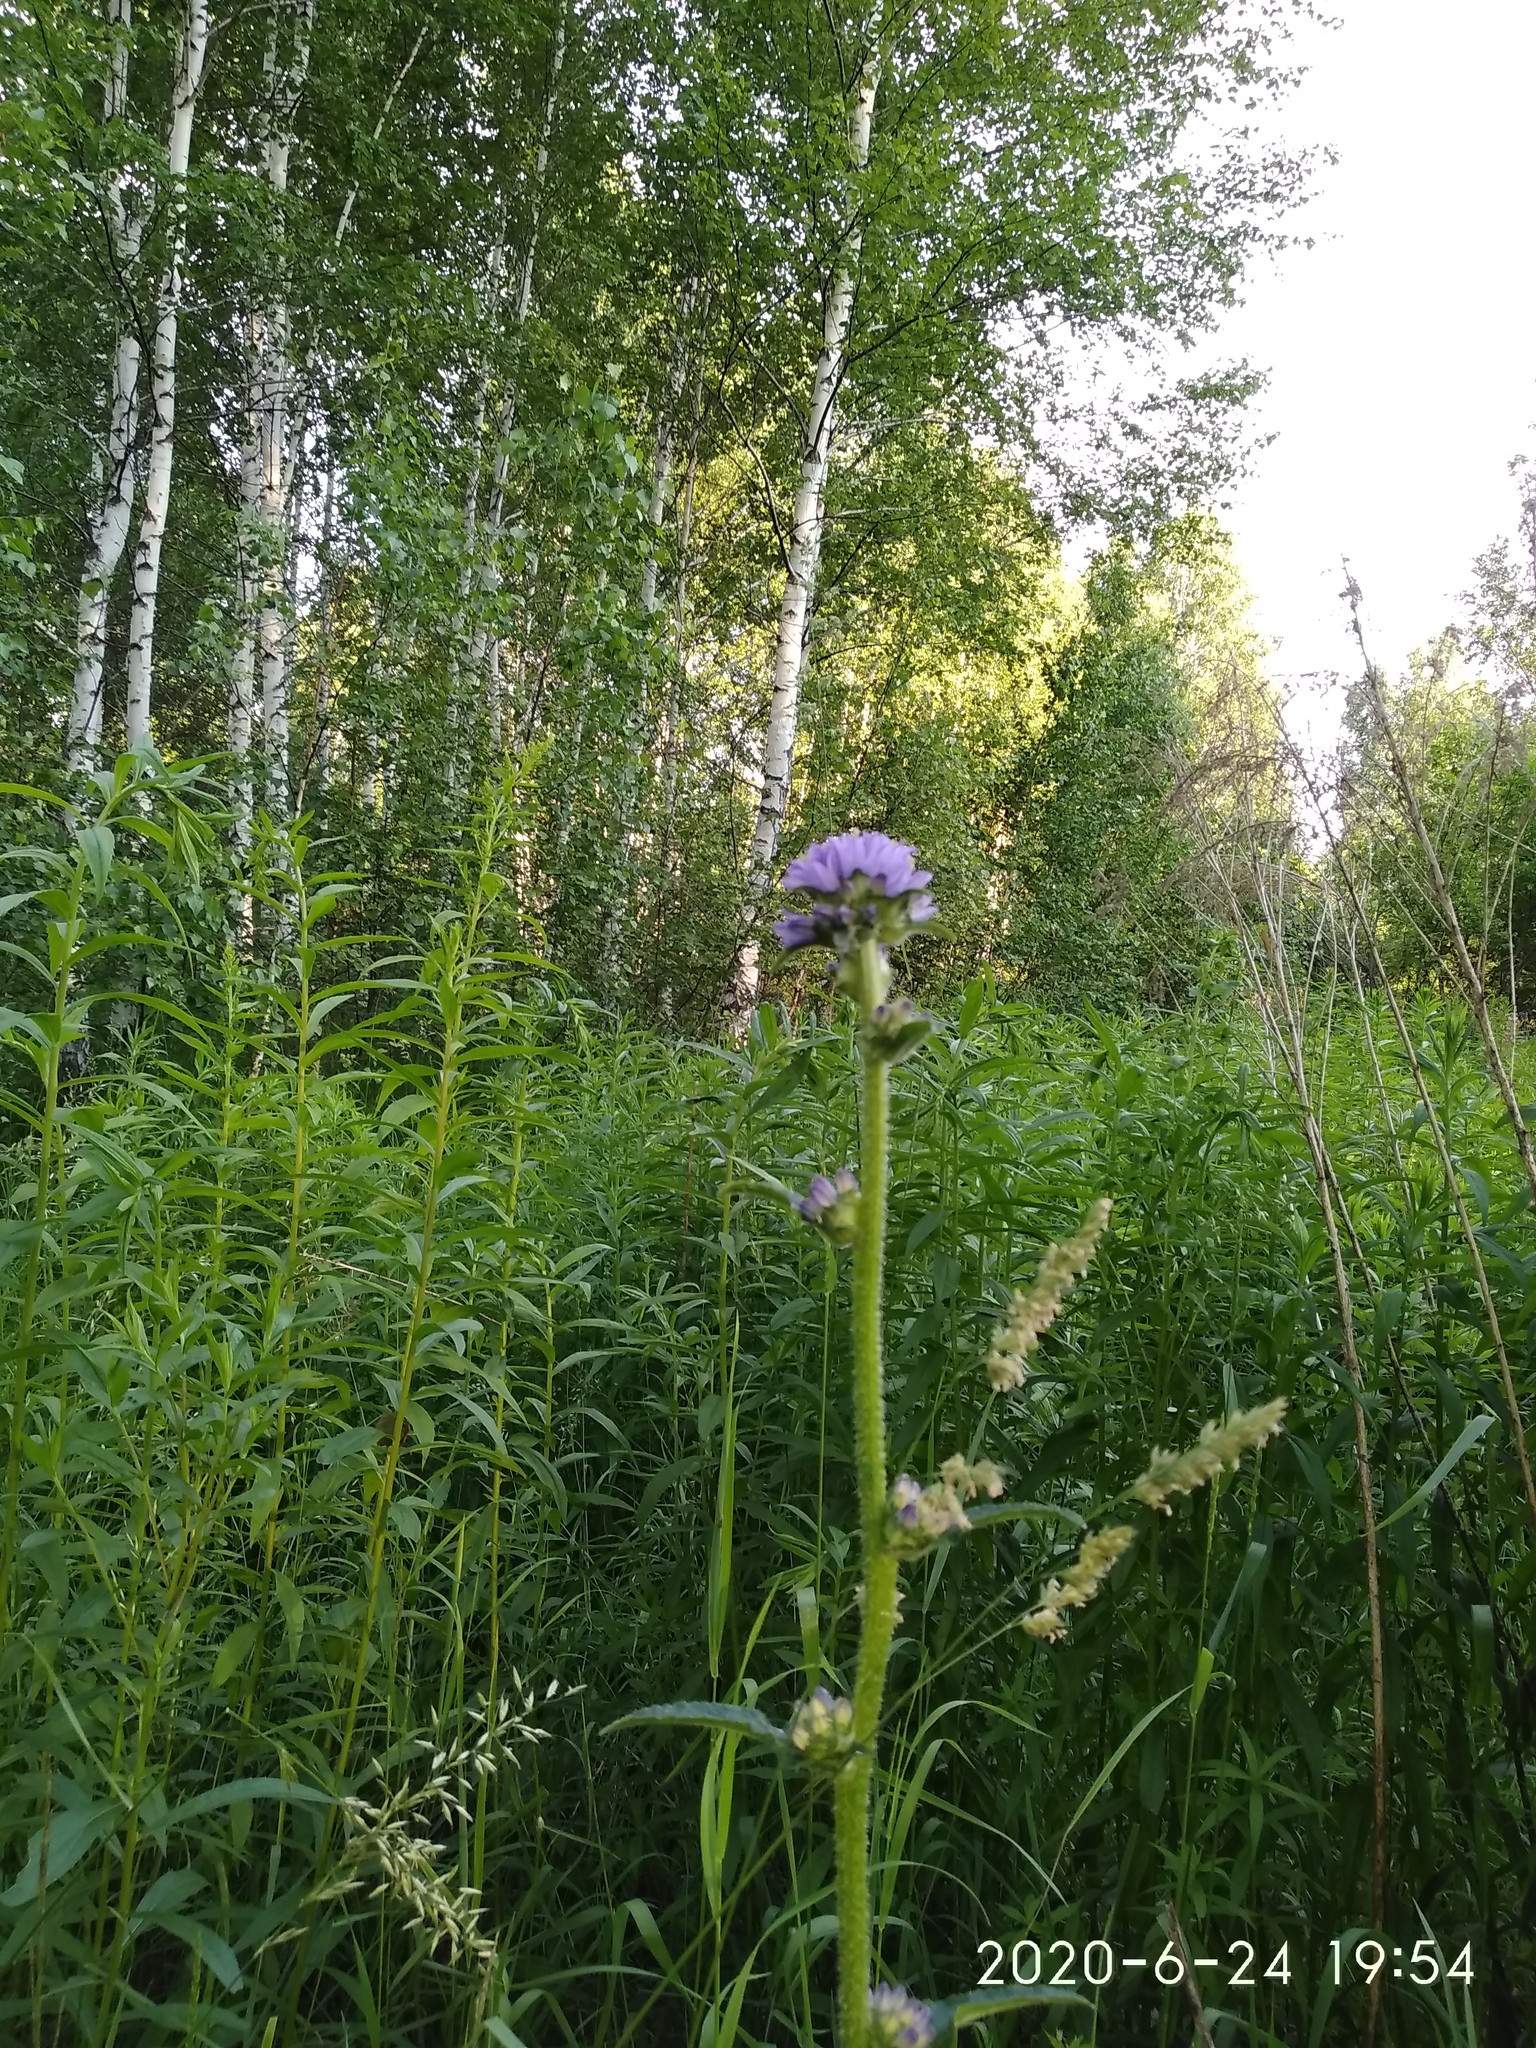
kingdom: Plantae
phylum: Tracheophyta
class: Magnoliopsida
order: Asterales
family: Campanulaceae
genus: Campanula
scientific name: Campanula cervicaria
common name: Bristly bellflower
